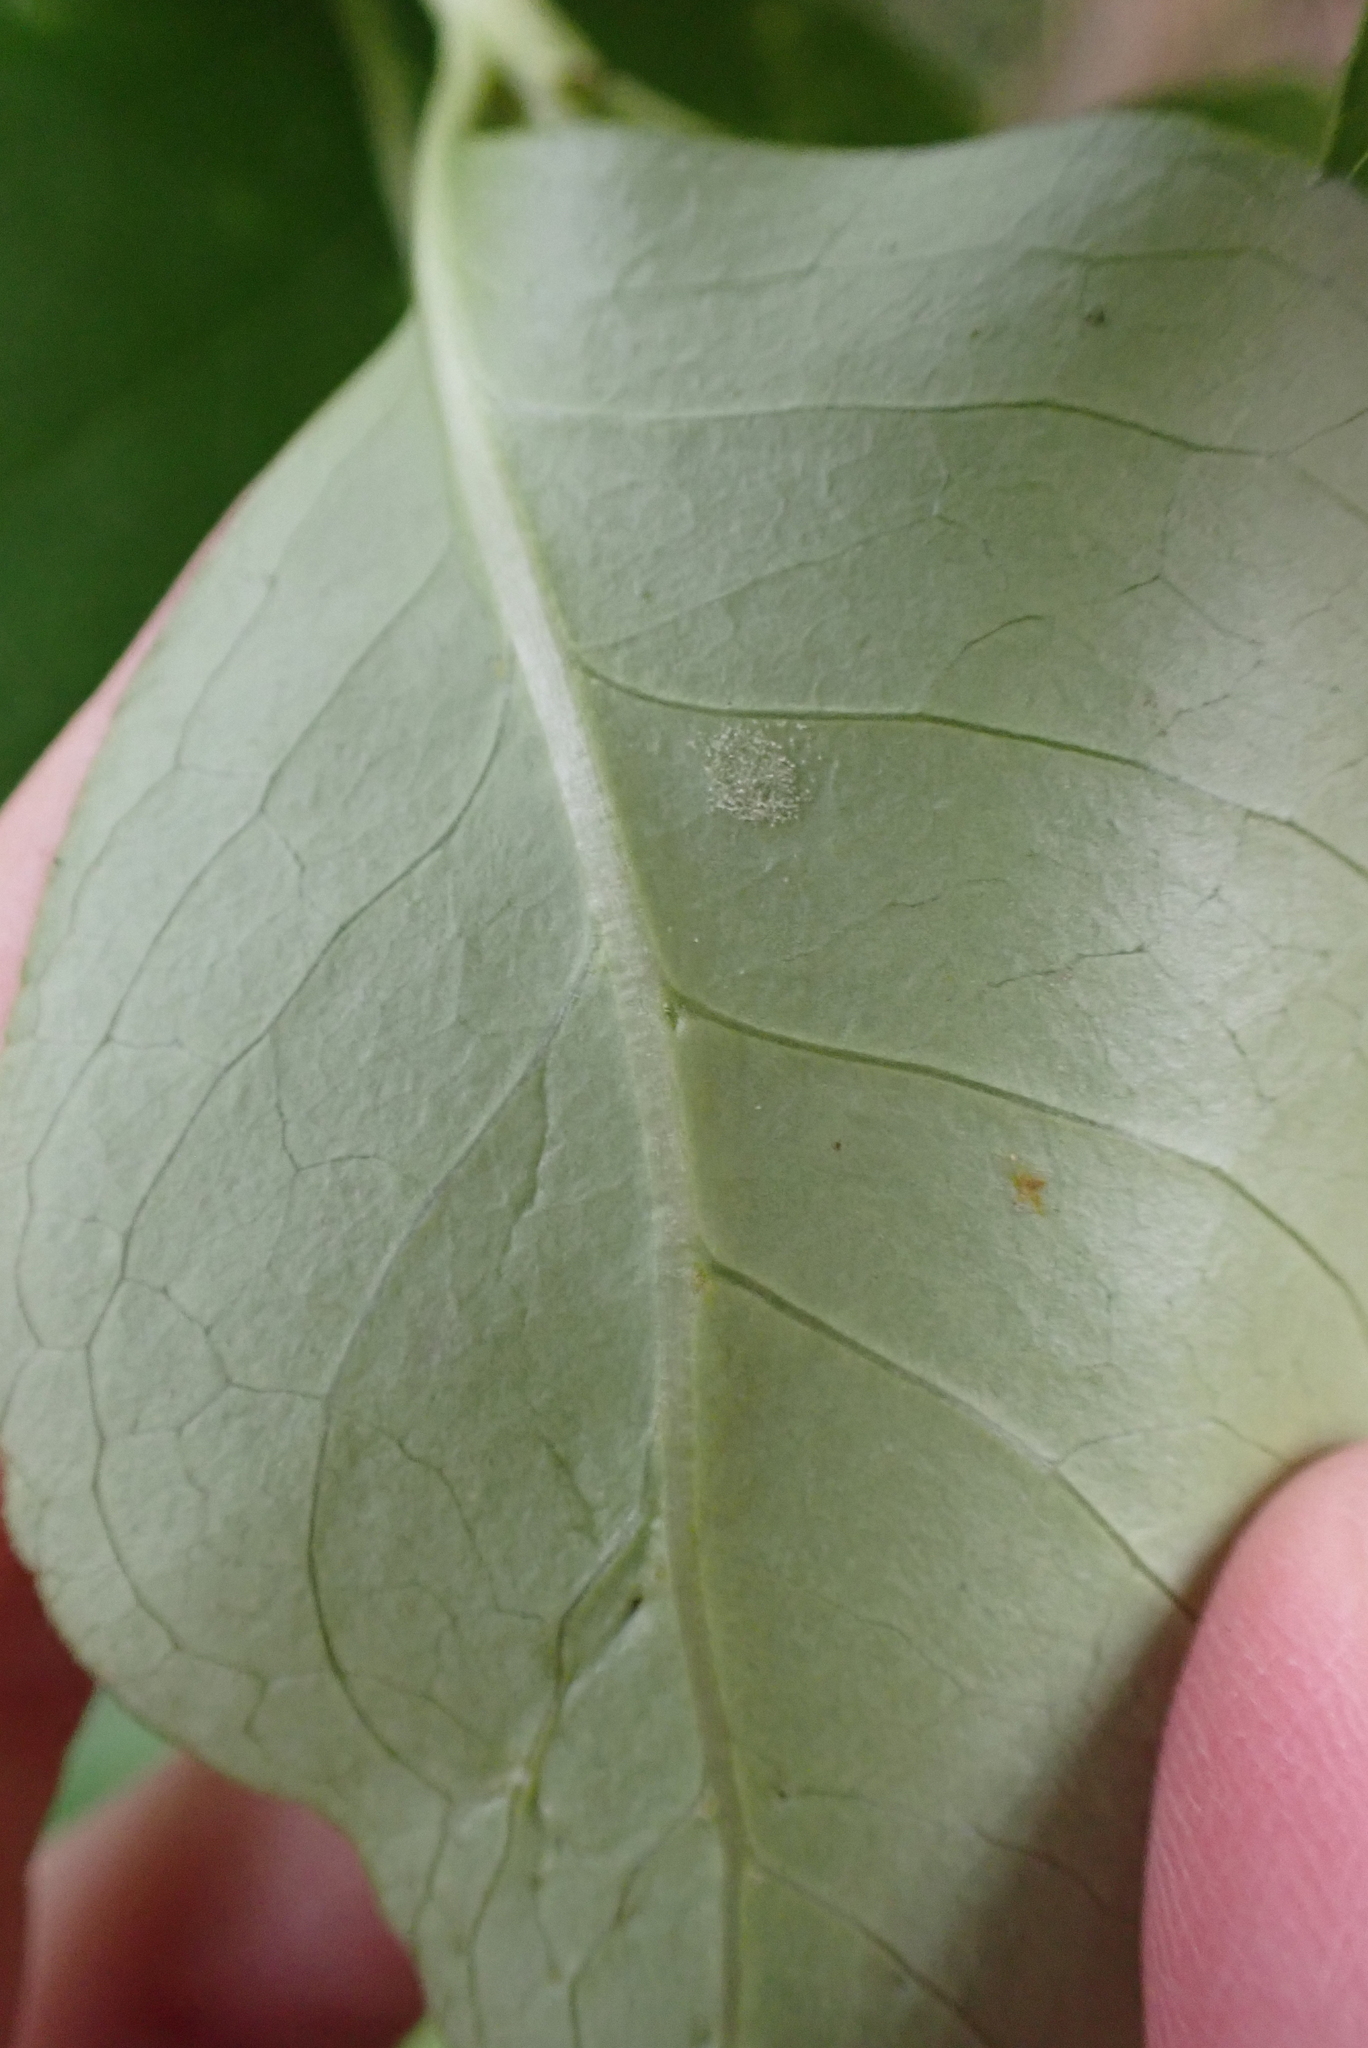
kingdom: Plantae
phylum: Tracheophyta
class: Magnoliopsida
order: Gentianales
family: Rubiaceae
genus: Coprosma
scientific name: Coprosma robusta
